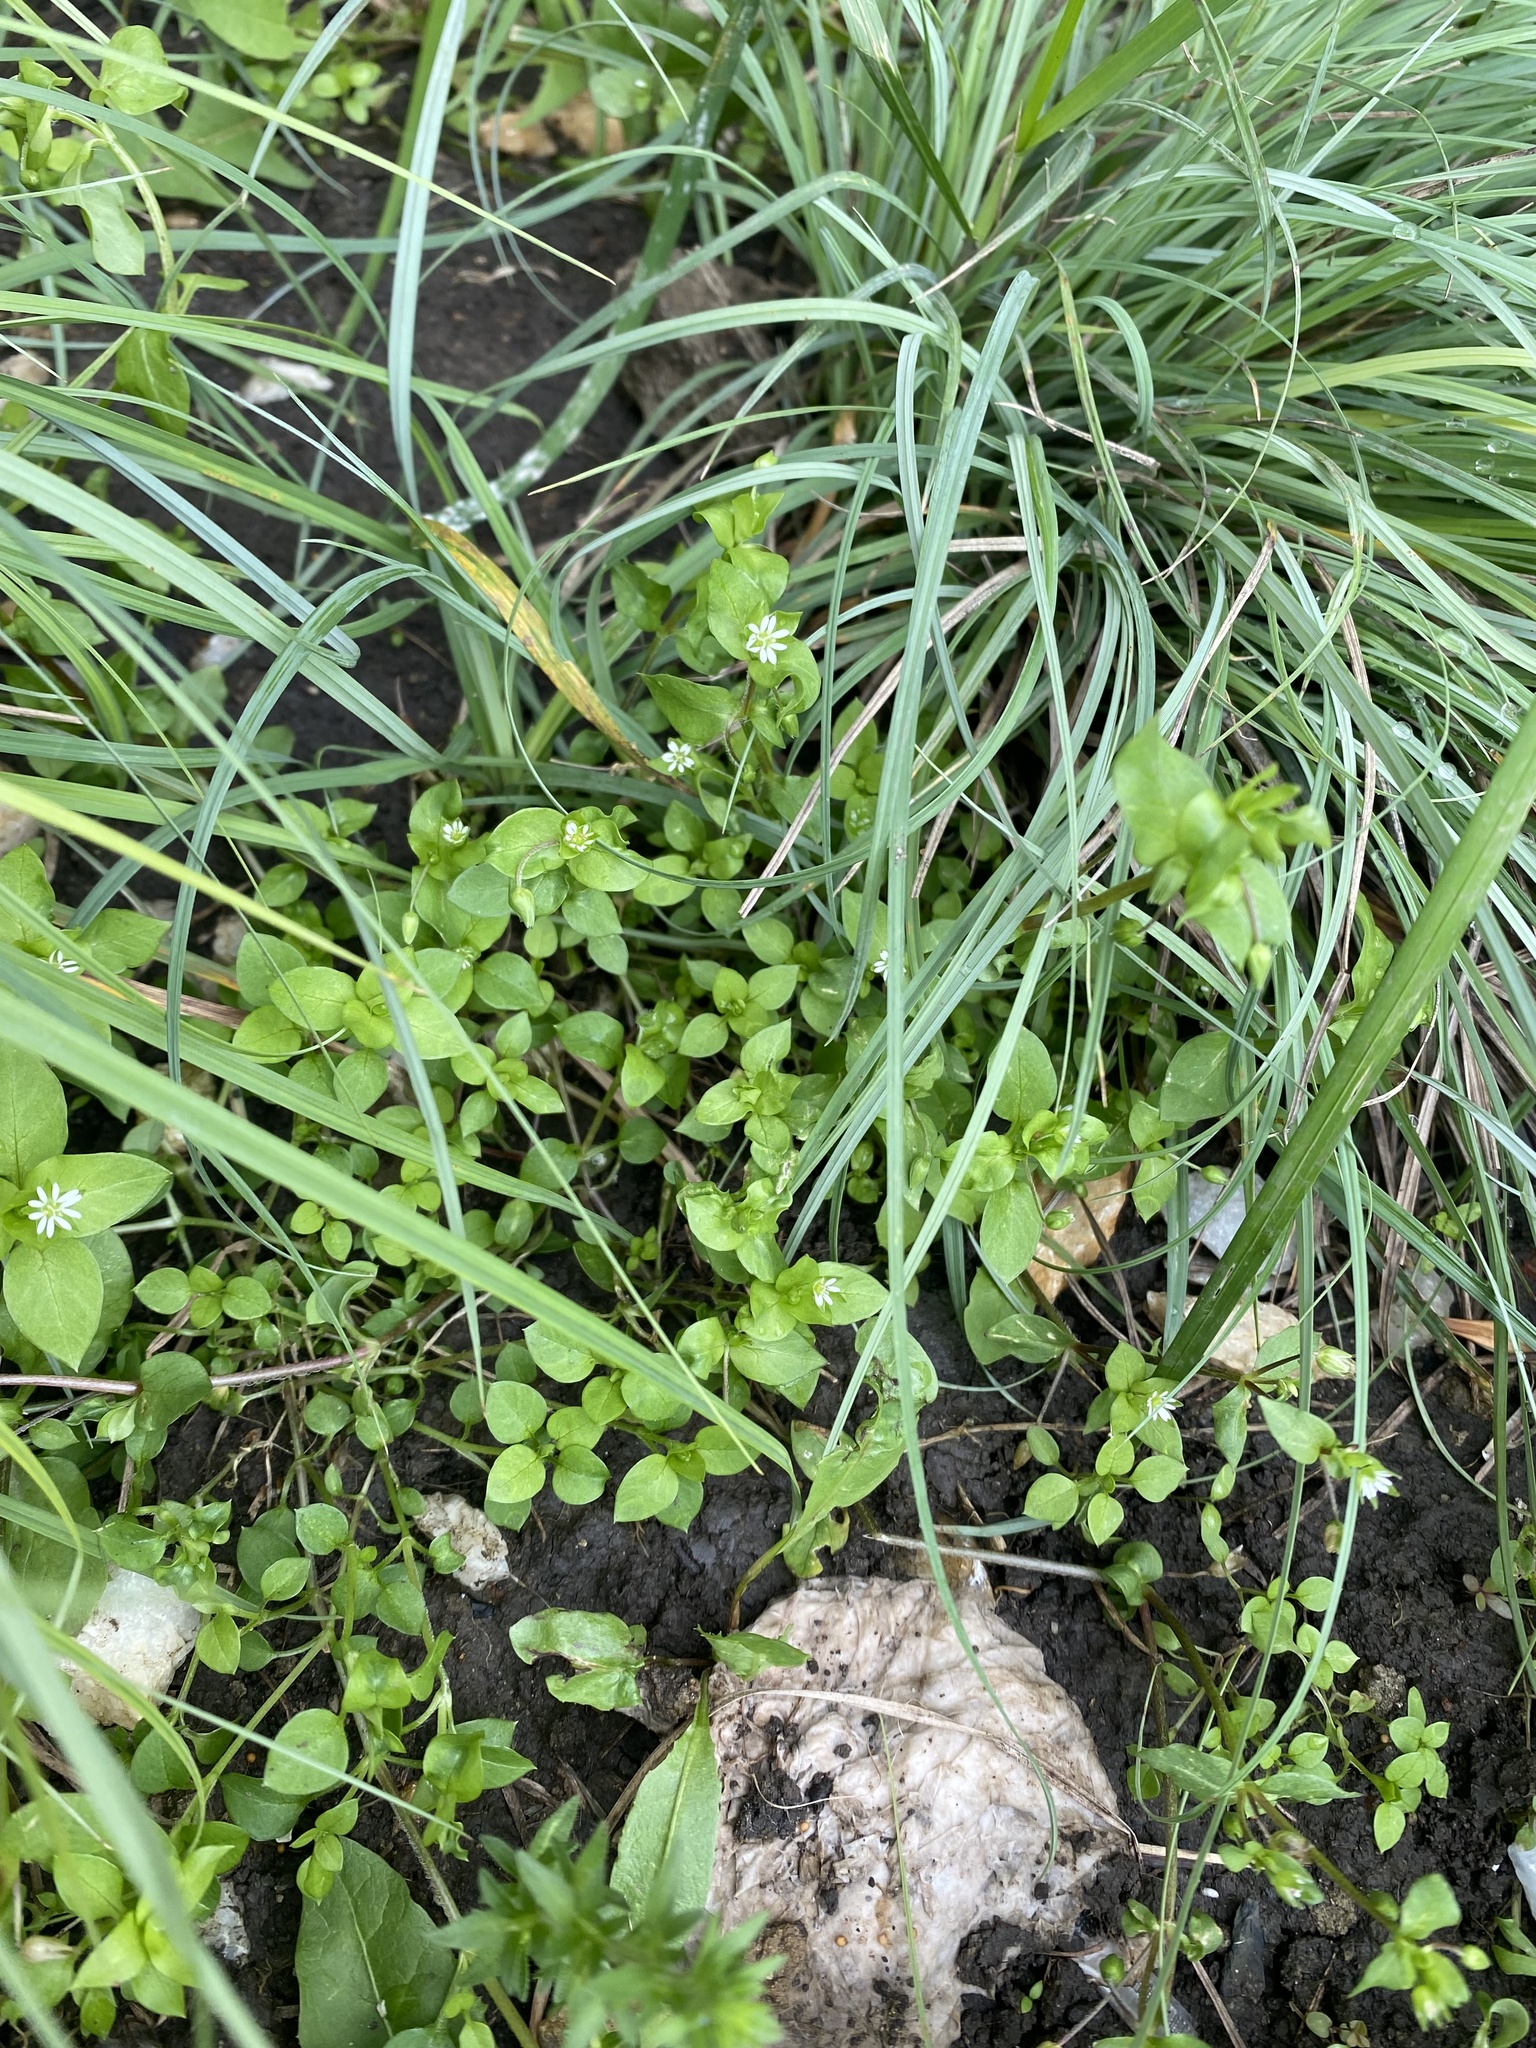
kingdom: Plantae
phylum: Tracheophyta
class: Magnoliopsida
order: Caryophyllales
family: Caryophyllaceae
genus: Stellaria
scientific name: Stellaria media
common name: Common chickweed
